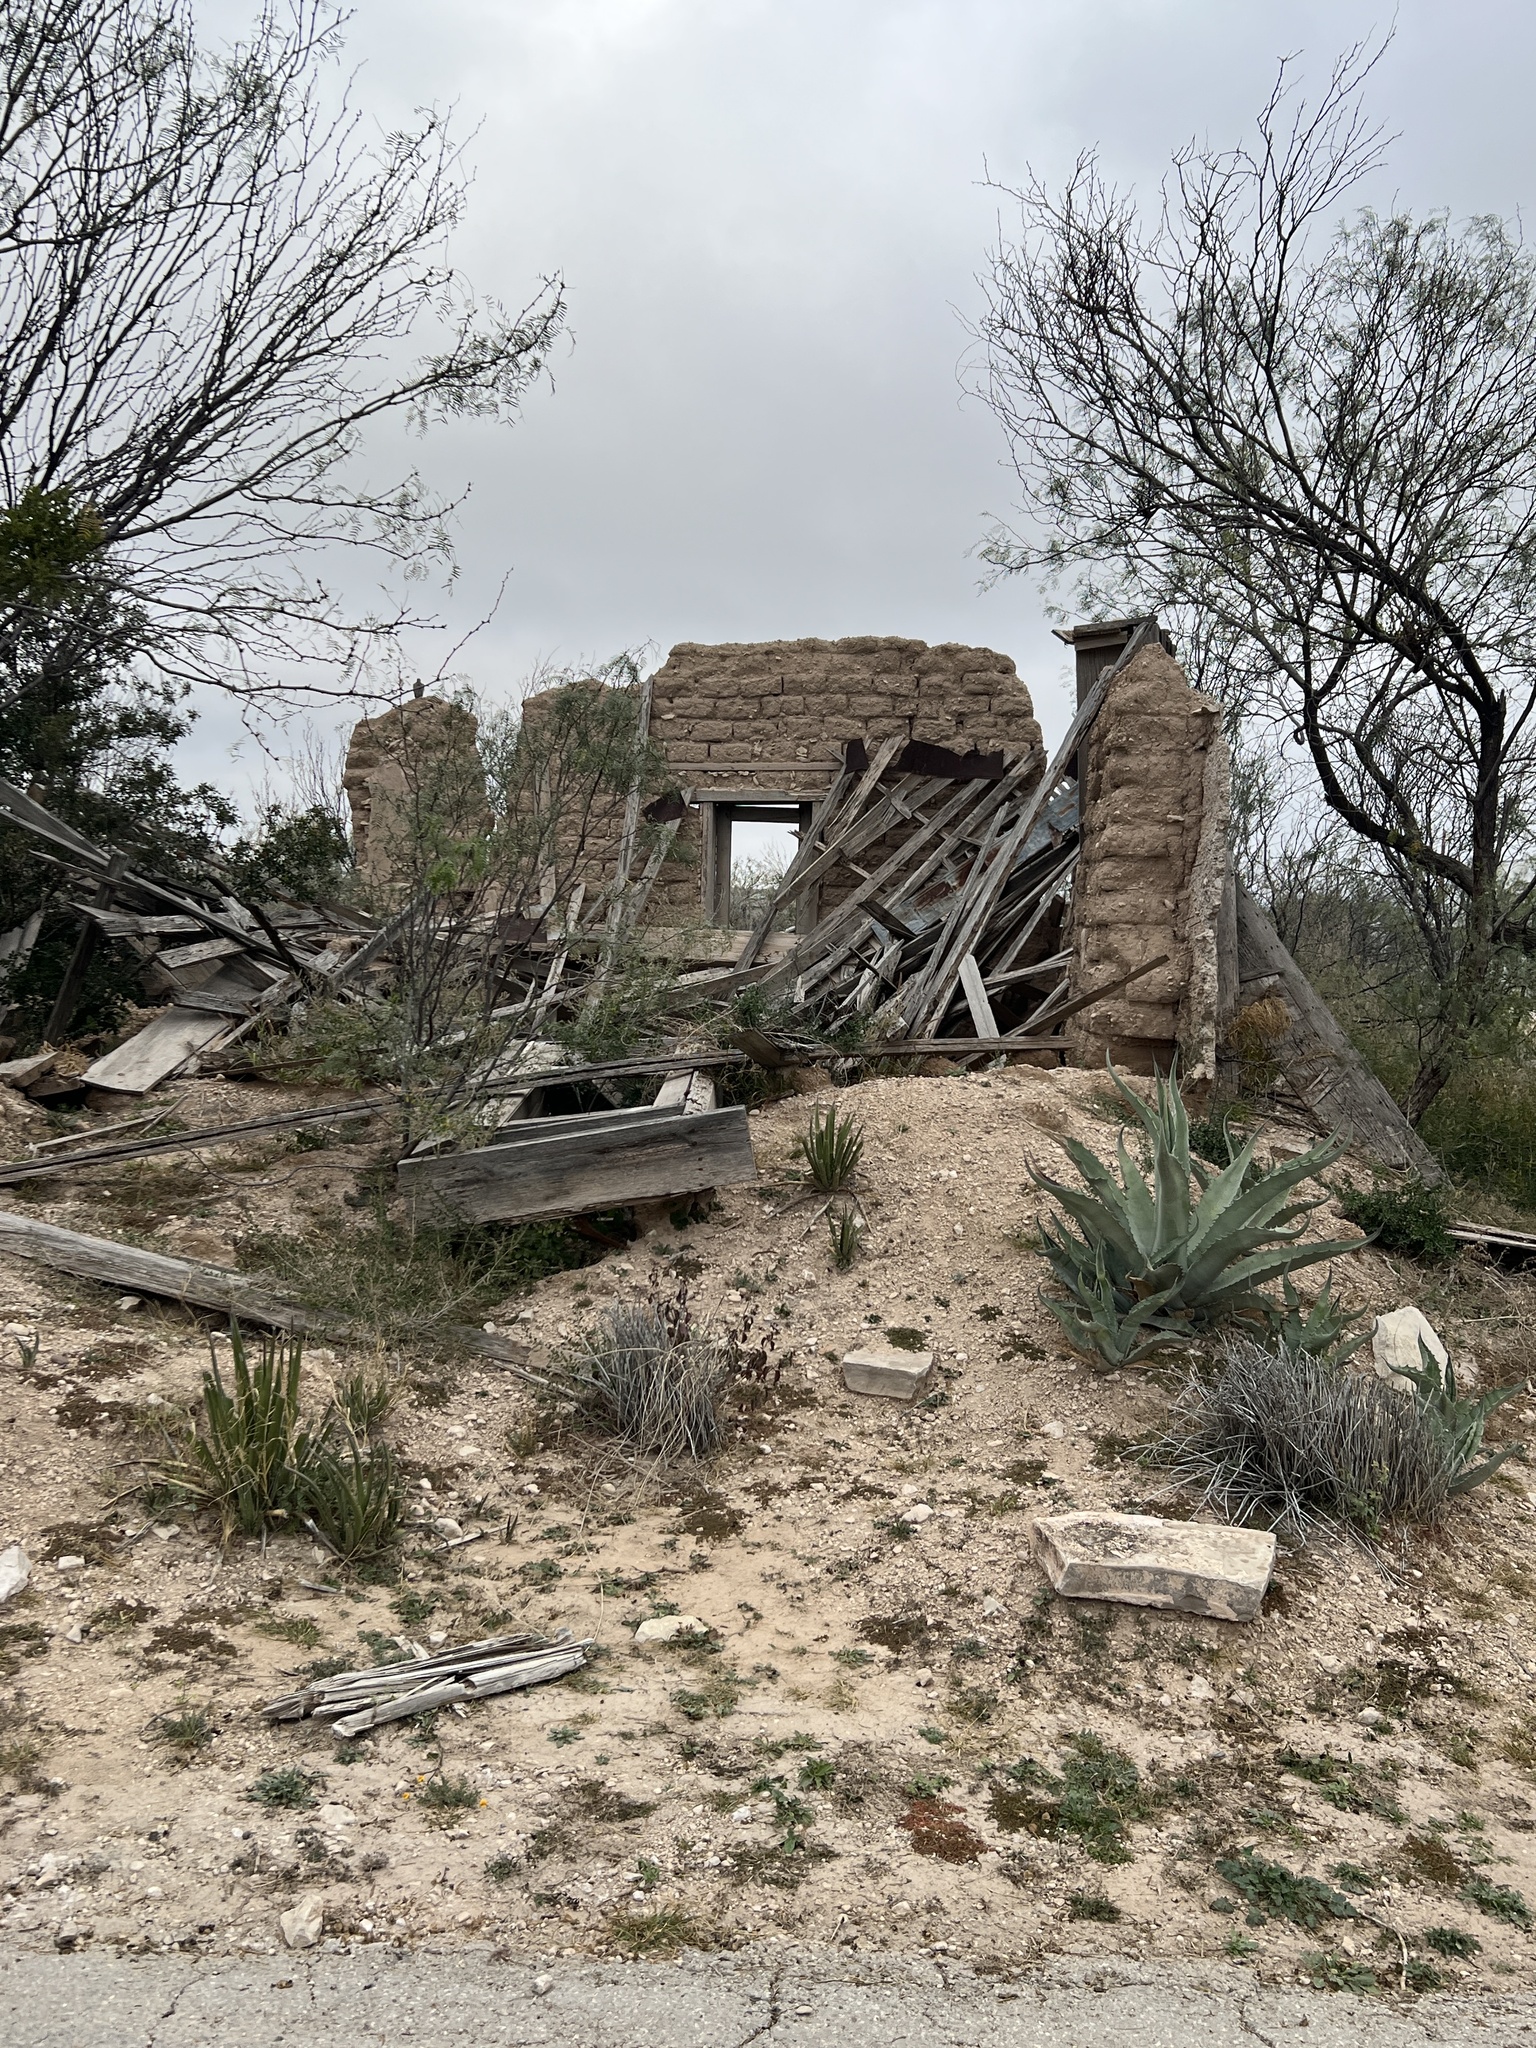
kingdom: Plantae
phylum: Tracheophyta
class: Liliopsida
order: Asparagales
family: Asparagaceae
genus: Agave
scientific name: Agave asperrima
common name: Rough agave
